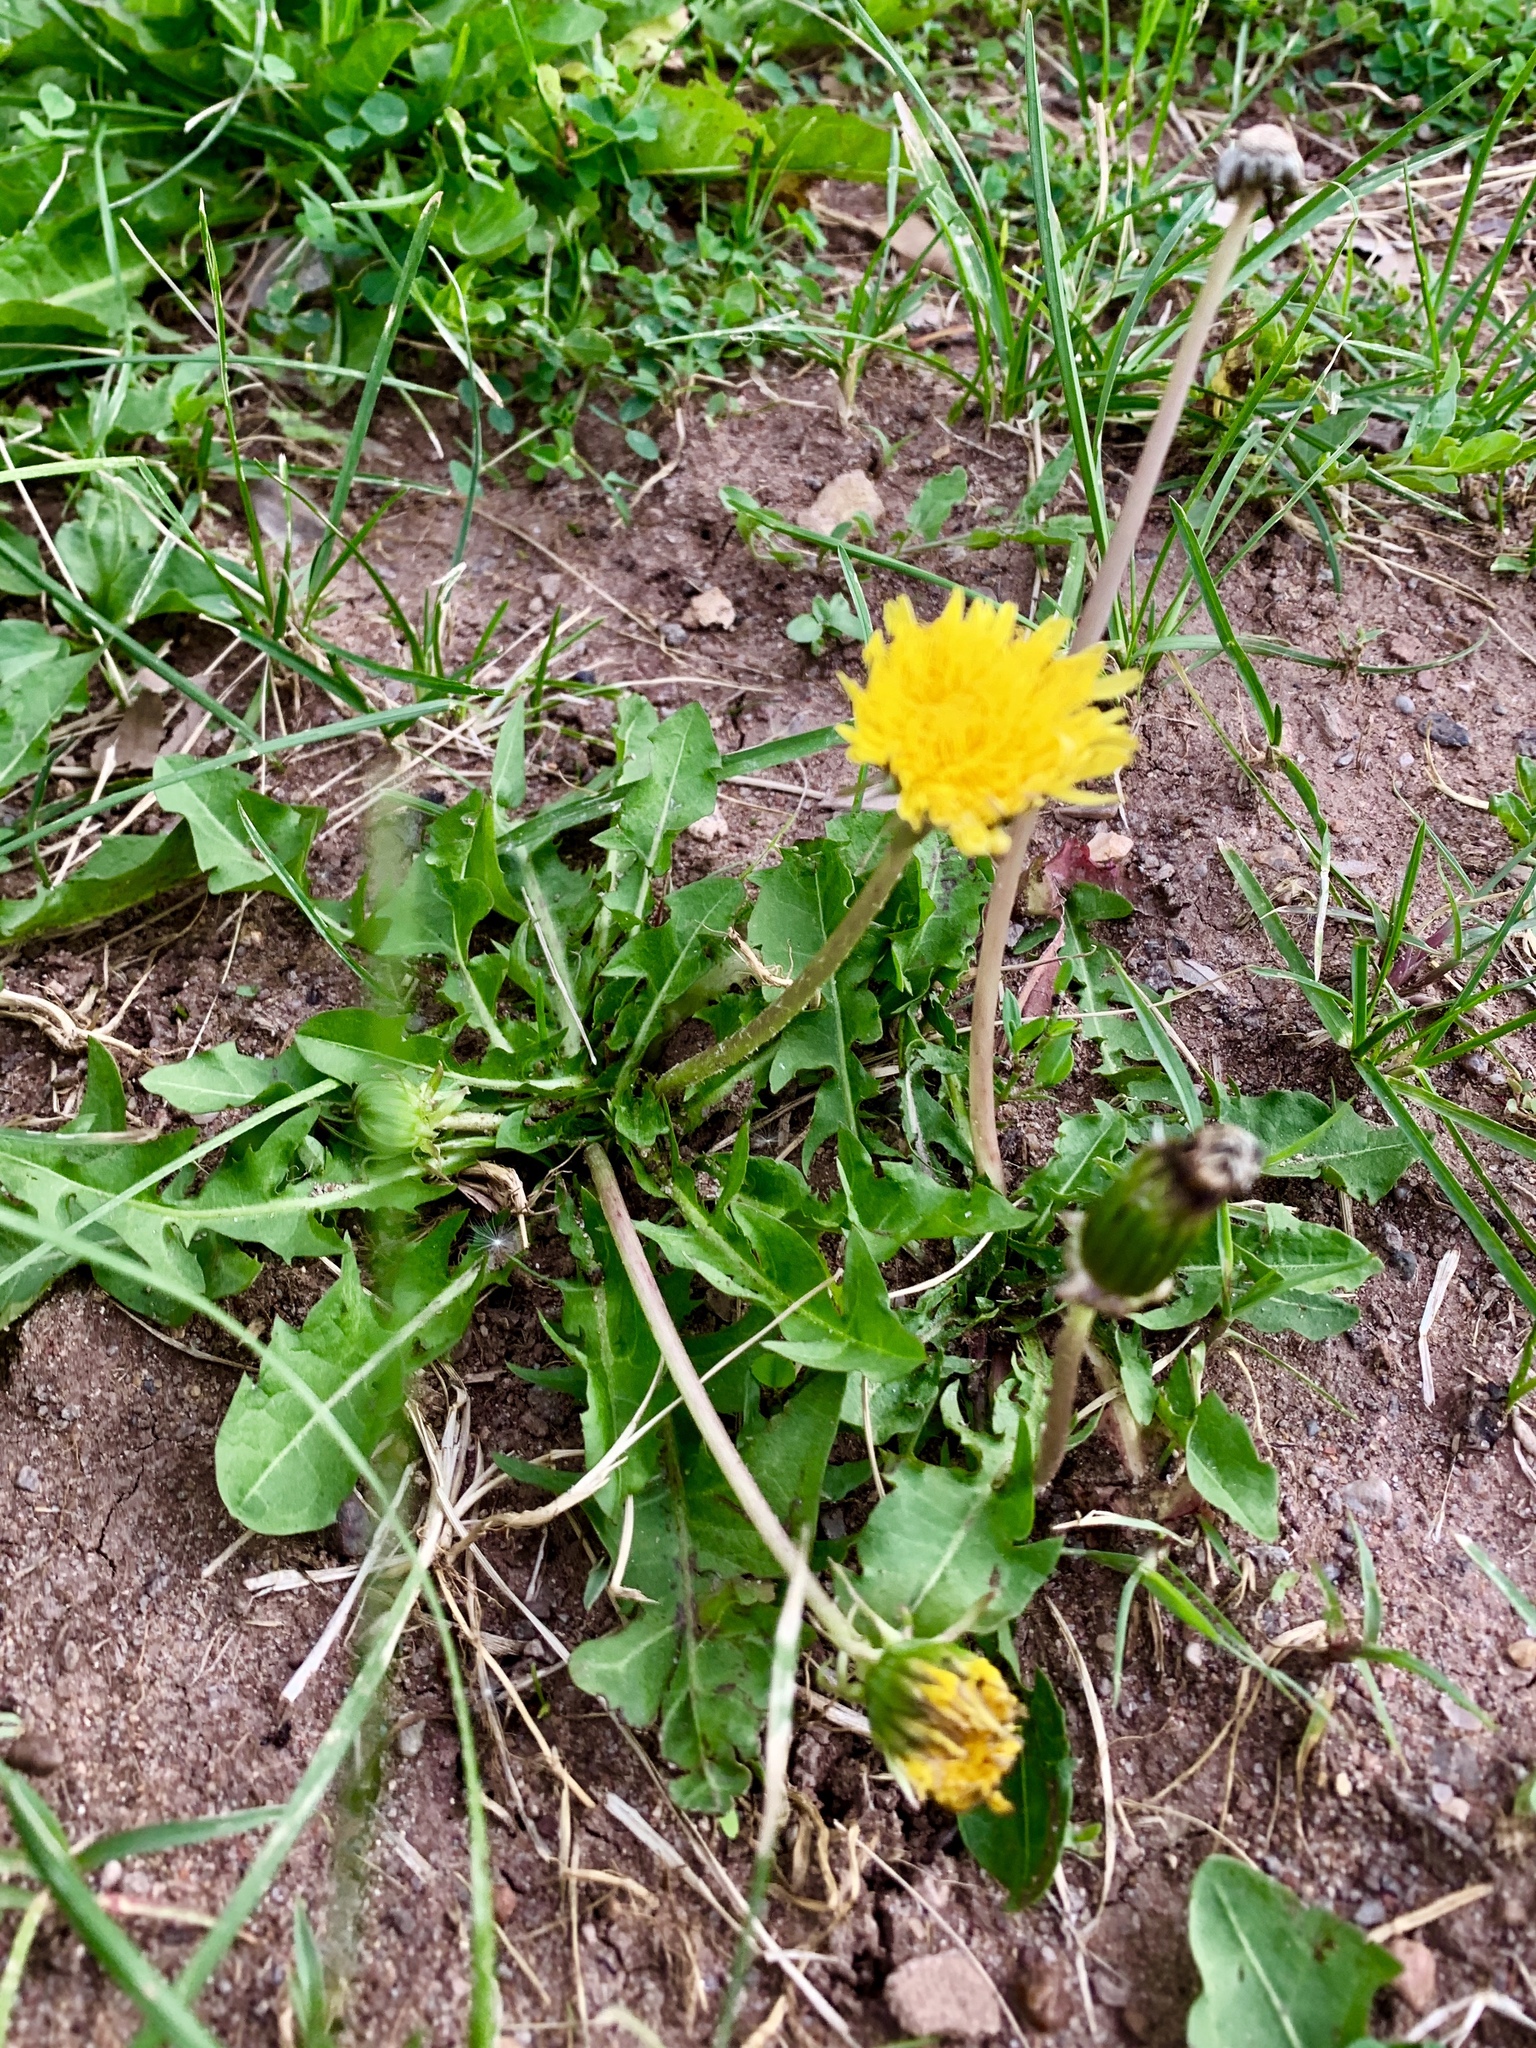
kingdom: Plantae
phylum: Tracheophyta
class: Magnoliopsida
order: Asterales
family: Asteraceae
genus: Taraxacum
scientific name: Taraxacum officinale
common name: Common dandelion
